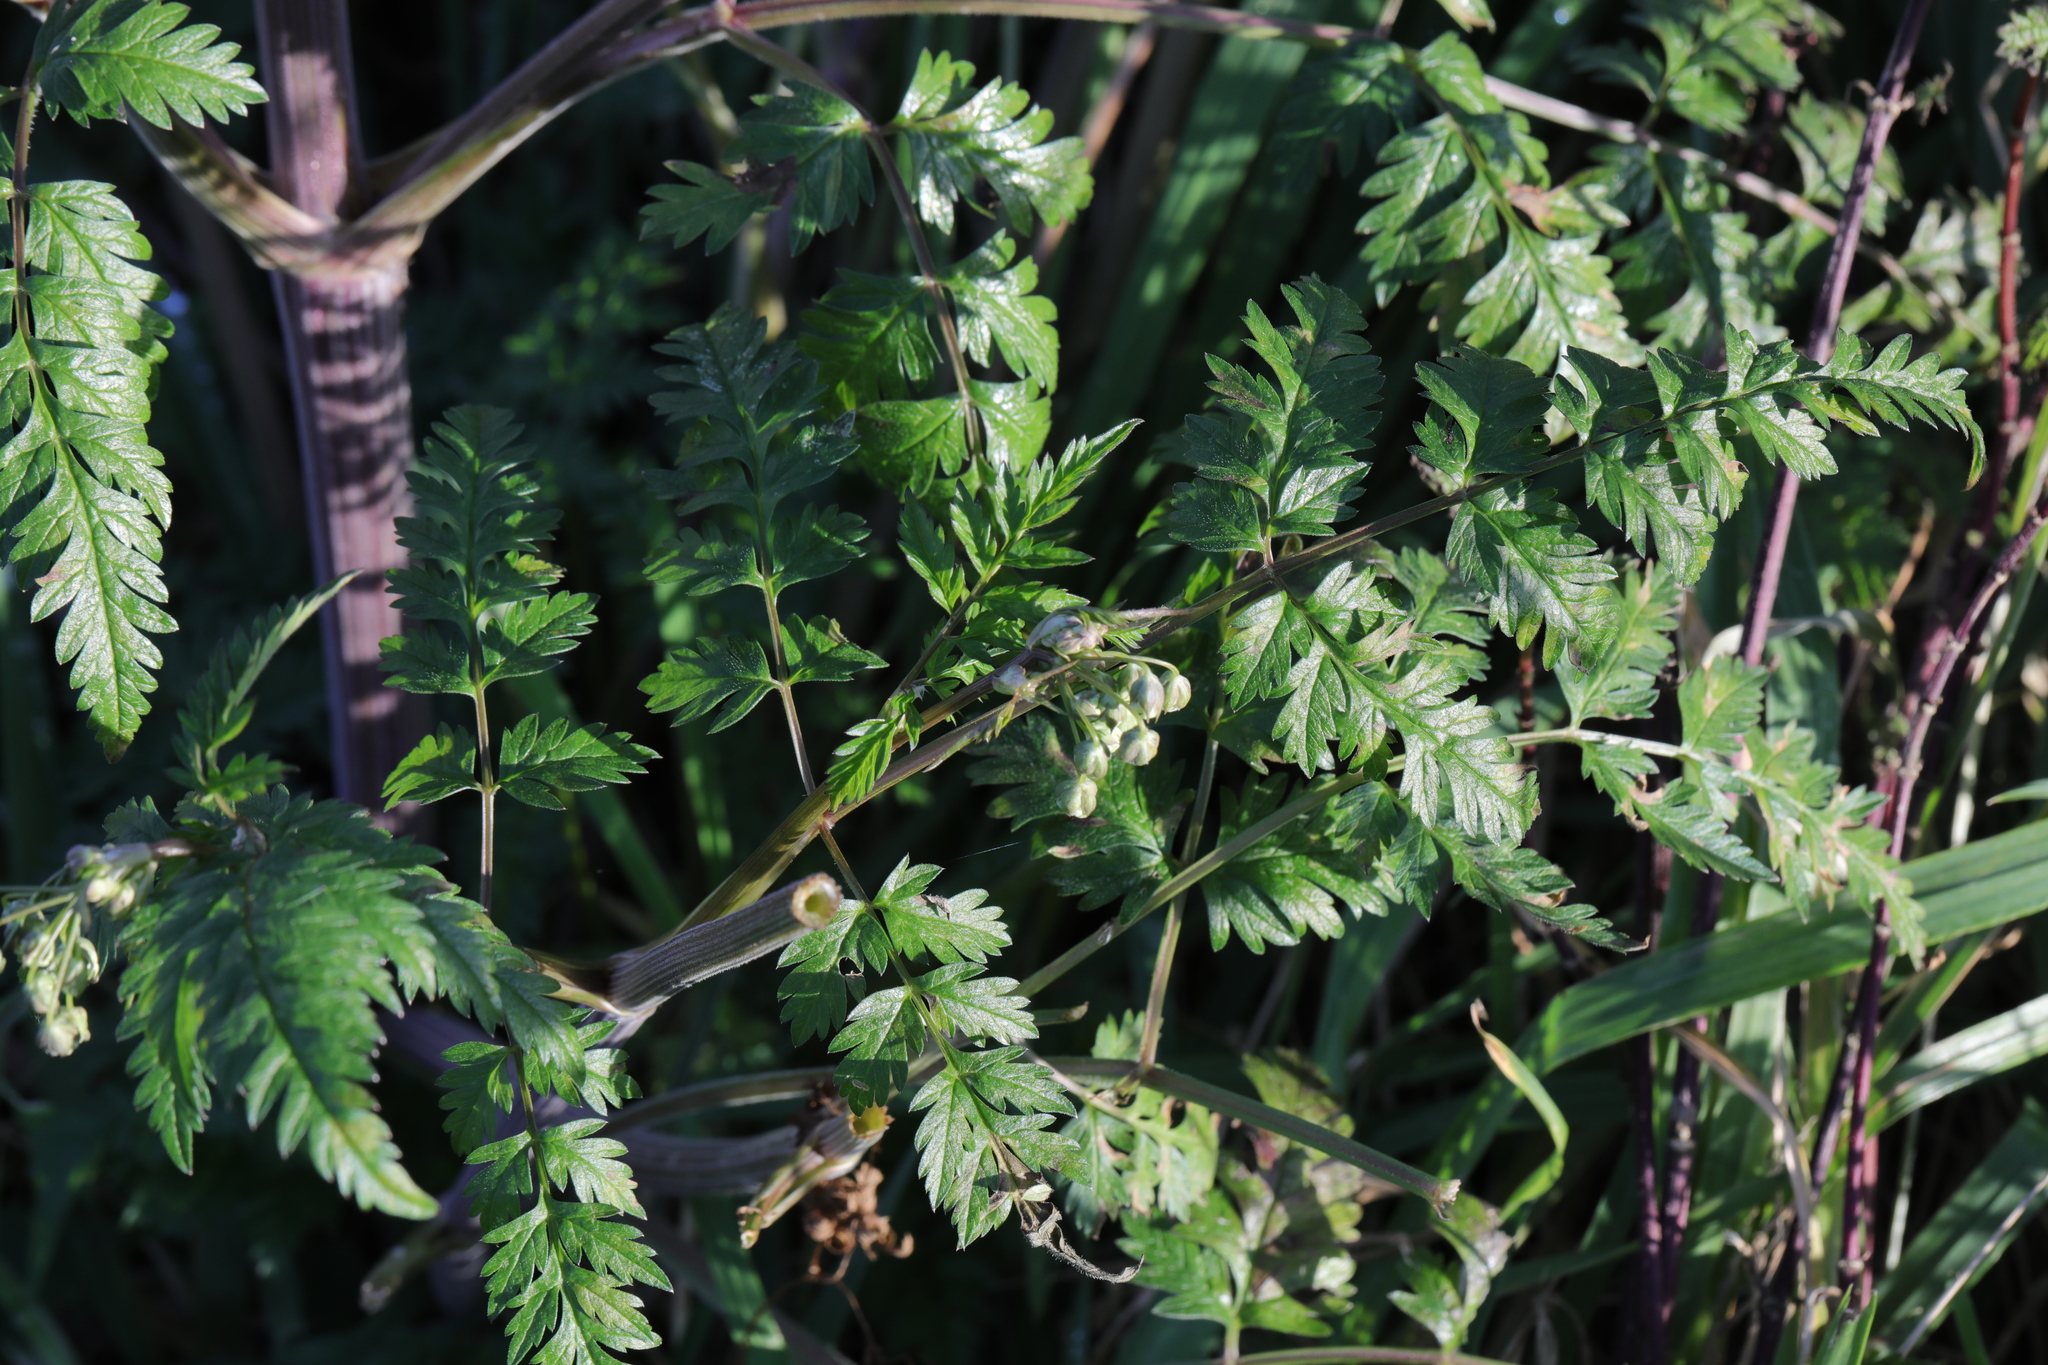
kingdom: Plantae
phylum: Tracheophyta
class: Magnoliopsida
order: Apiales
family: Apiaceae
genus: Anthriscus
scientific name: Anthriscus sylvestris
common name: Cow parsley
